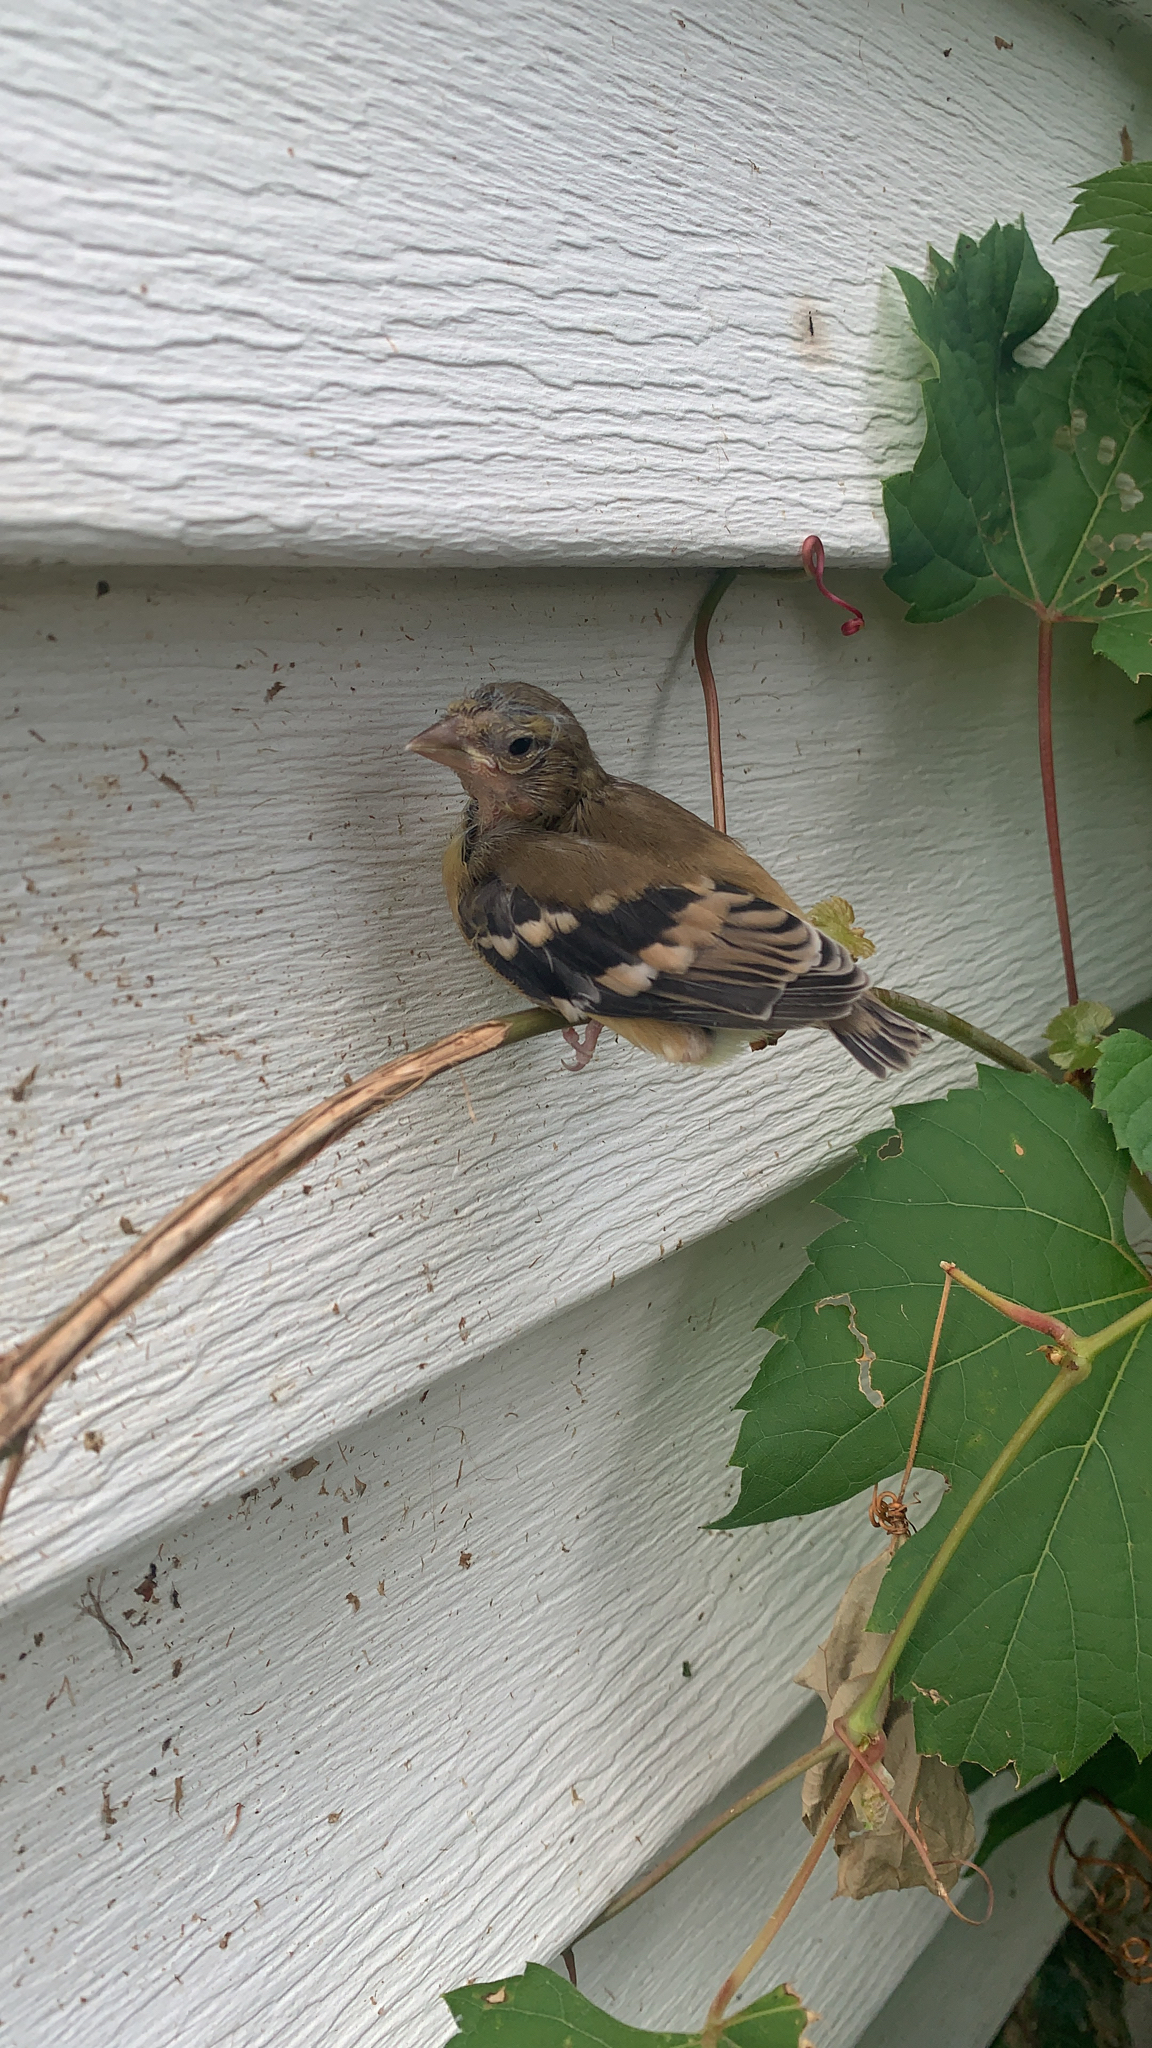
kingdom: Animalia
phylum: Chordata
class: Aves
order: Passeriformes
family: Fringillidae
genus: Spinus
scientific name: Spinus tristis
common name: American goldfinch
